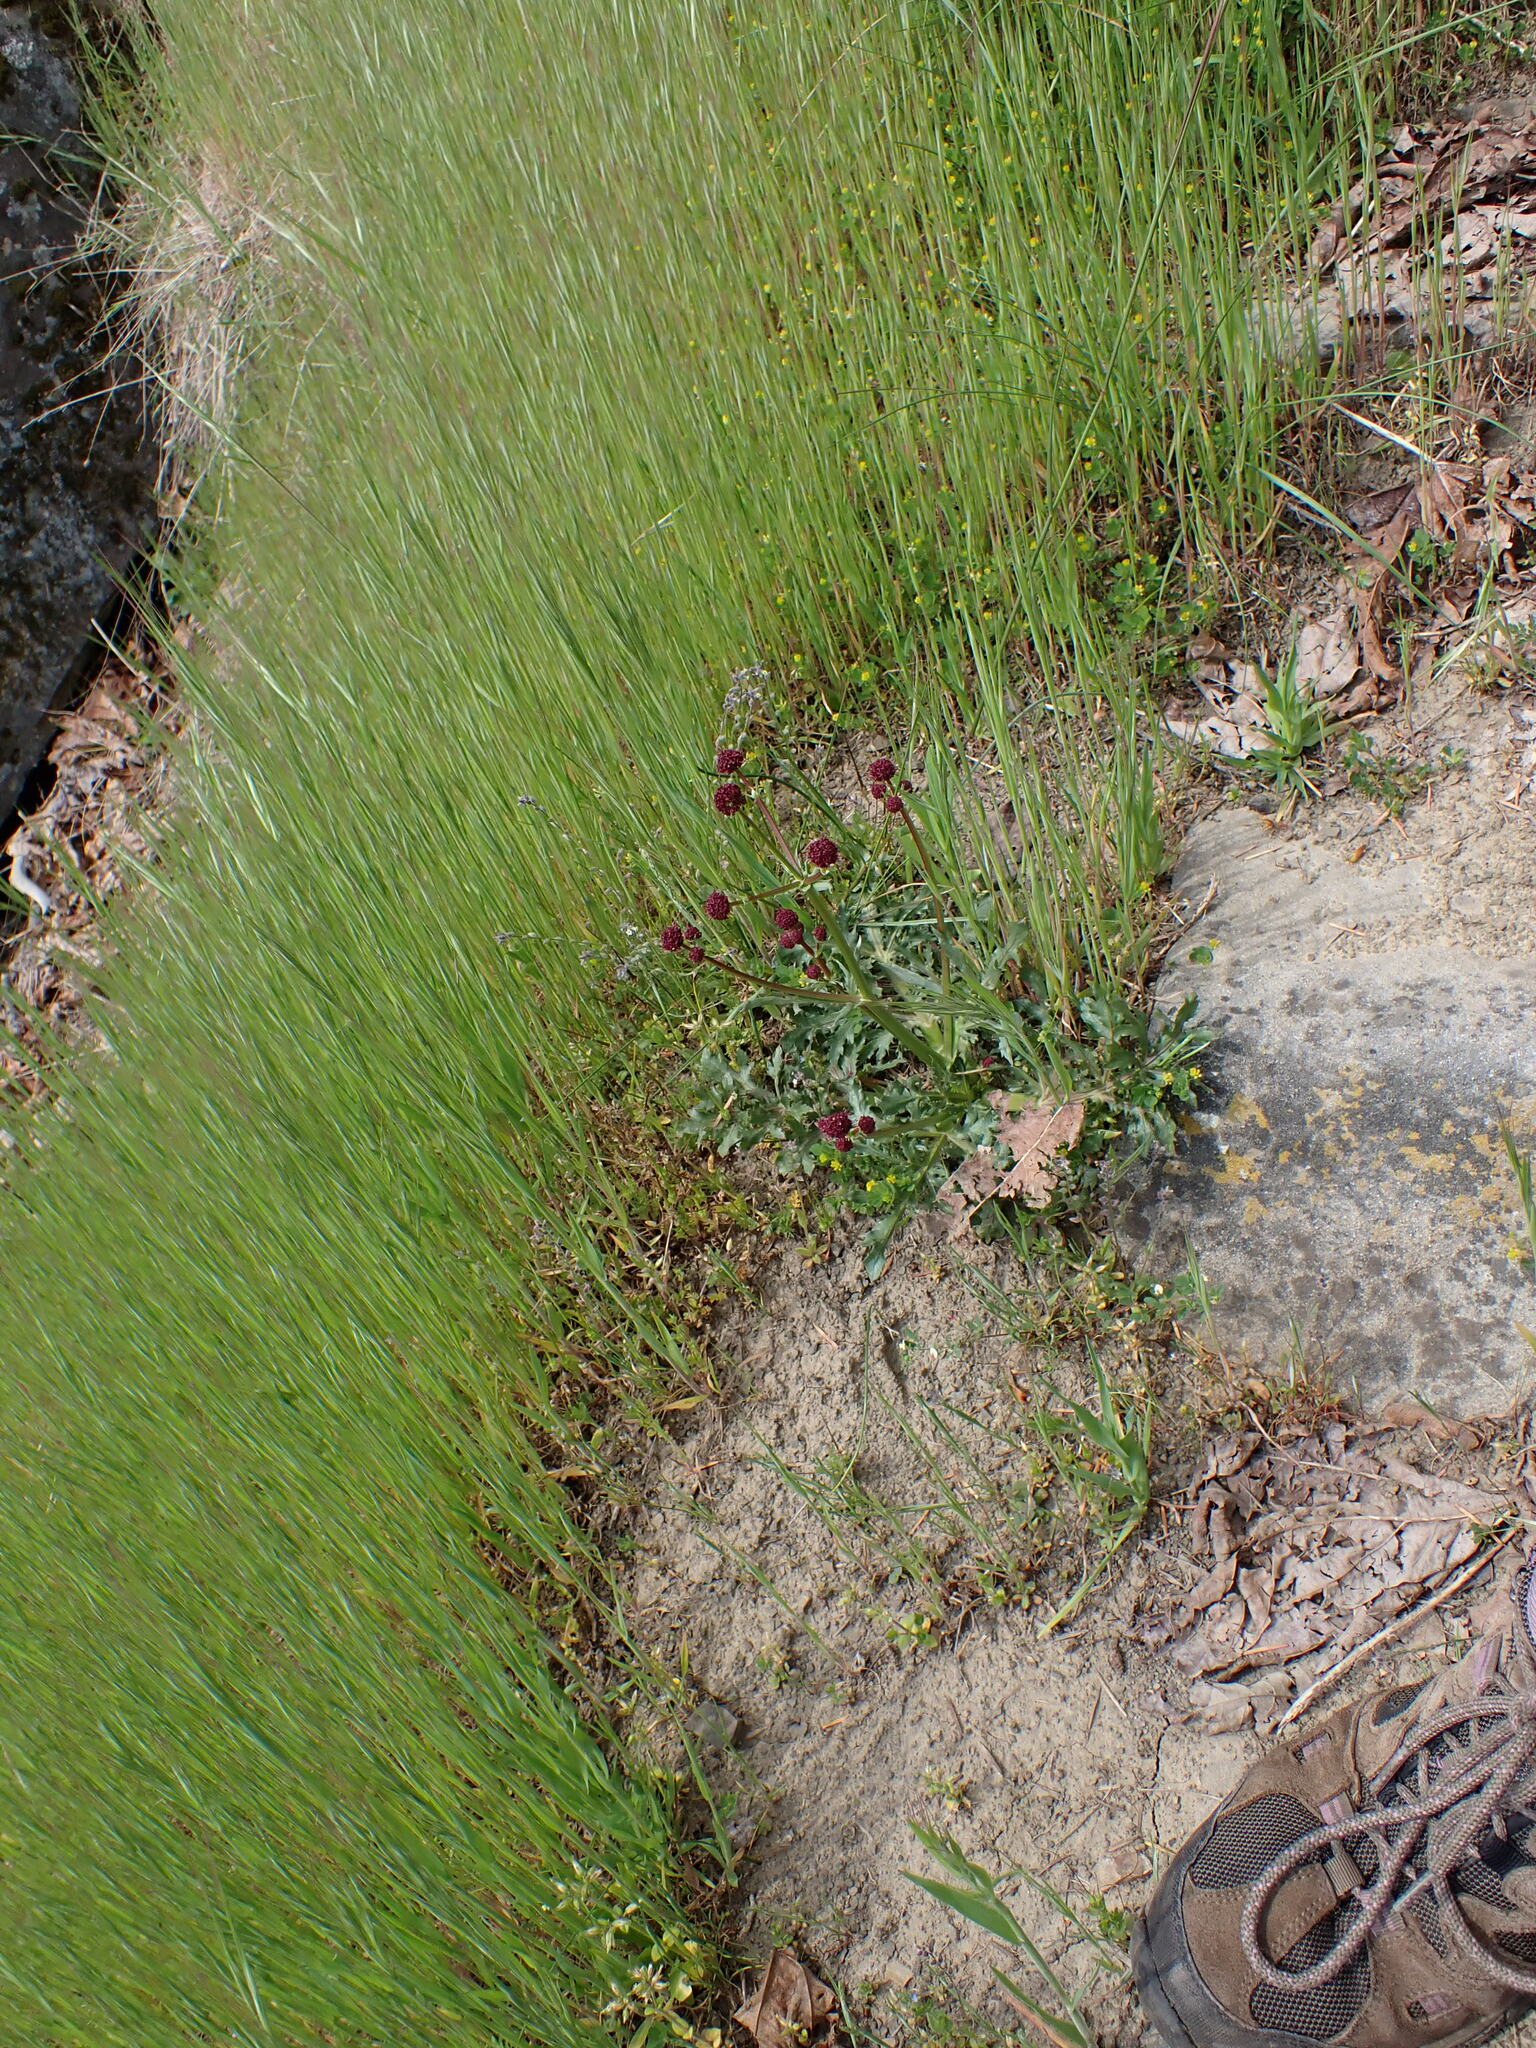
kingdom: Plantae
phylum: Tracheophyta
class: Magnoliopsida
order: Apiales
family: Apiaceae
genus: Sanicula
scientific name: Sanicula bipinnatifida
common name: Shoe-buttons
